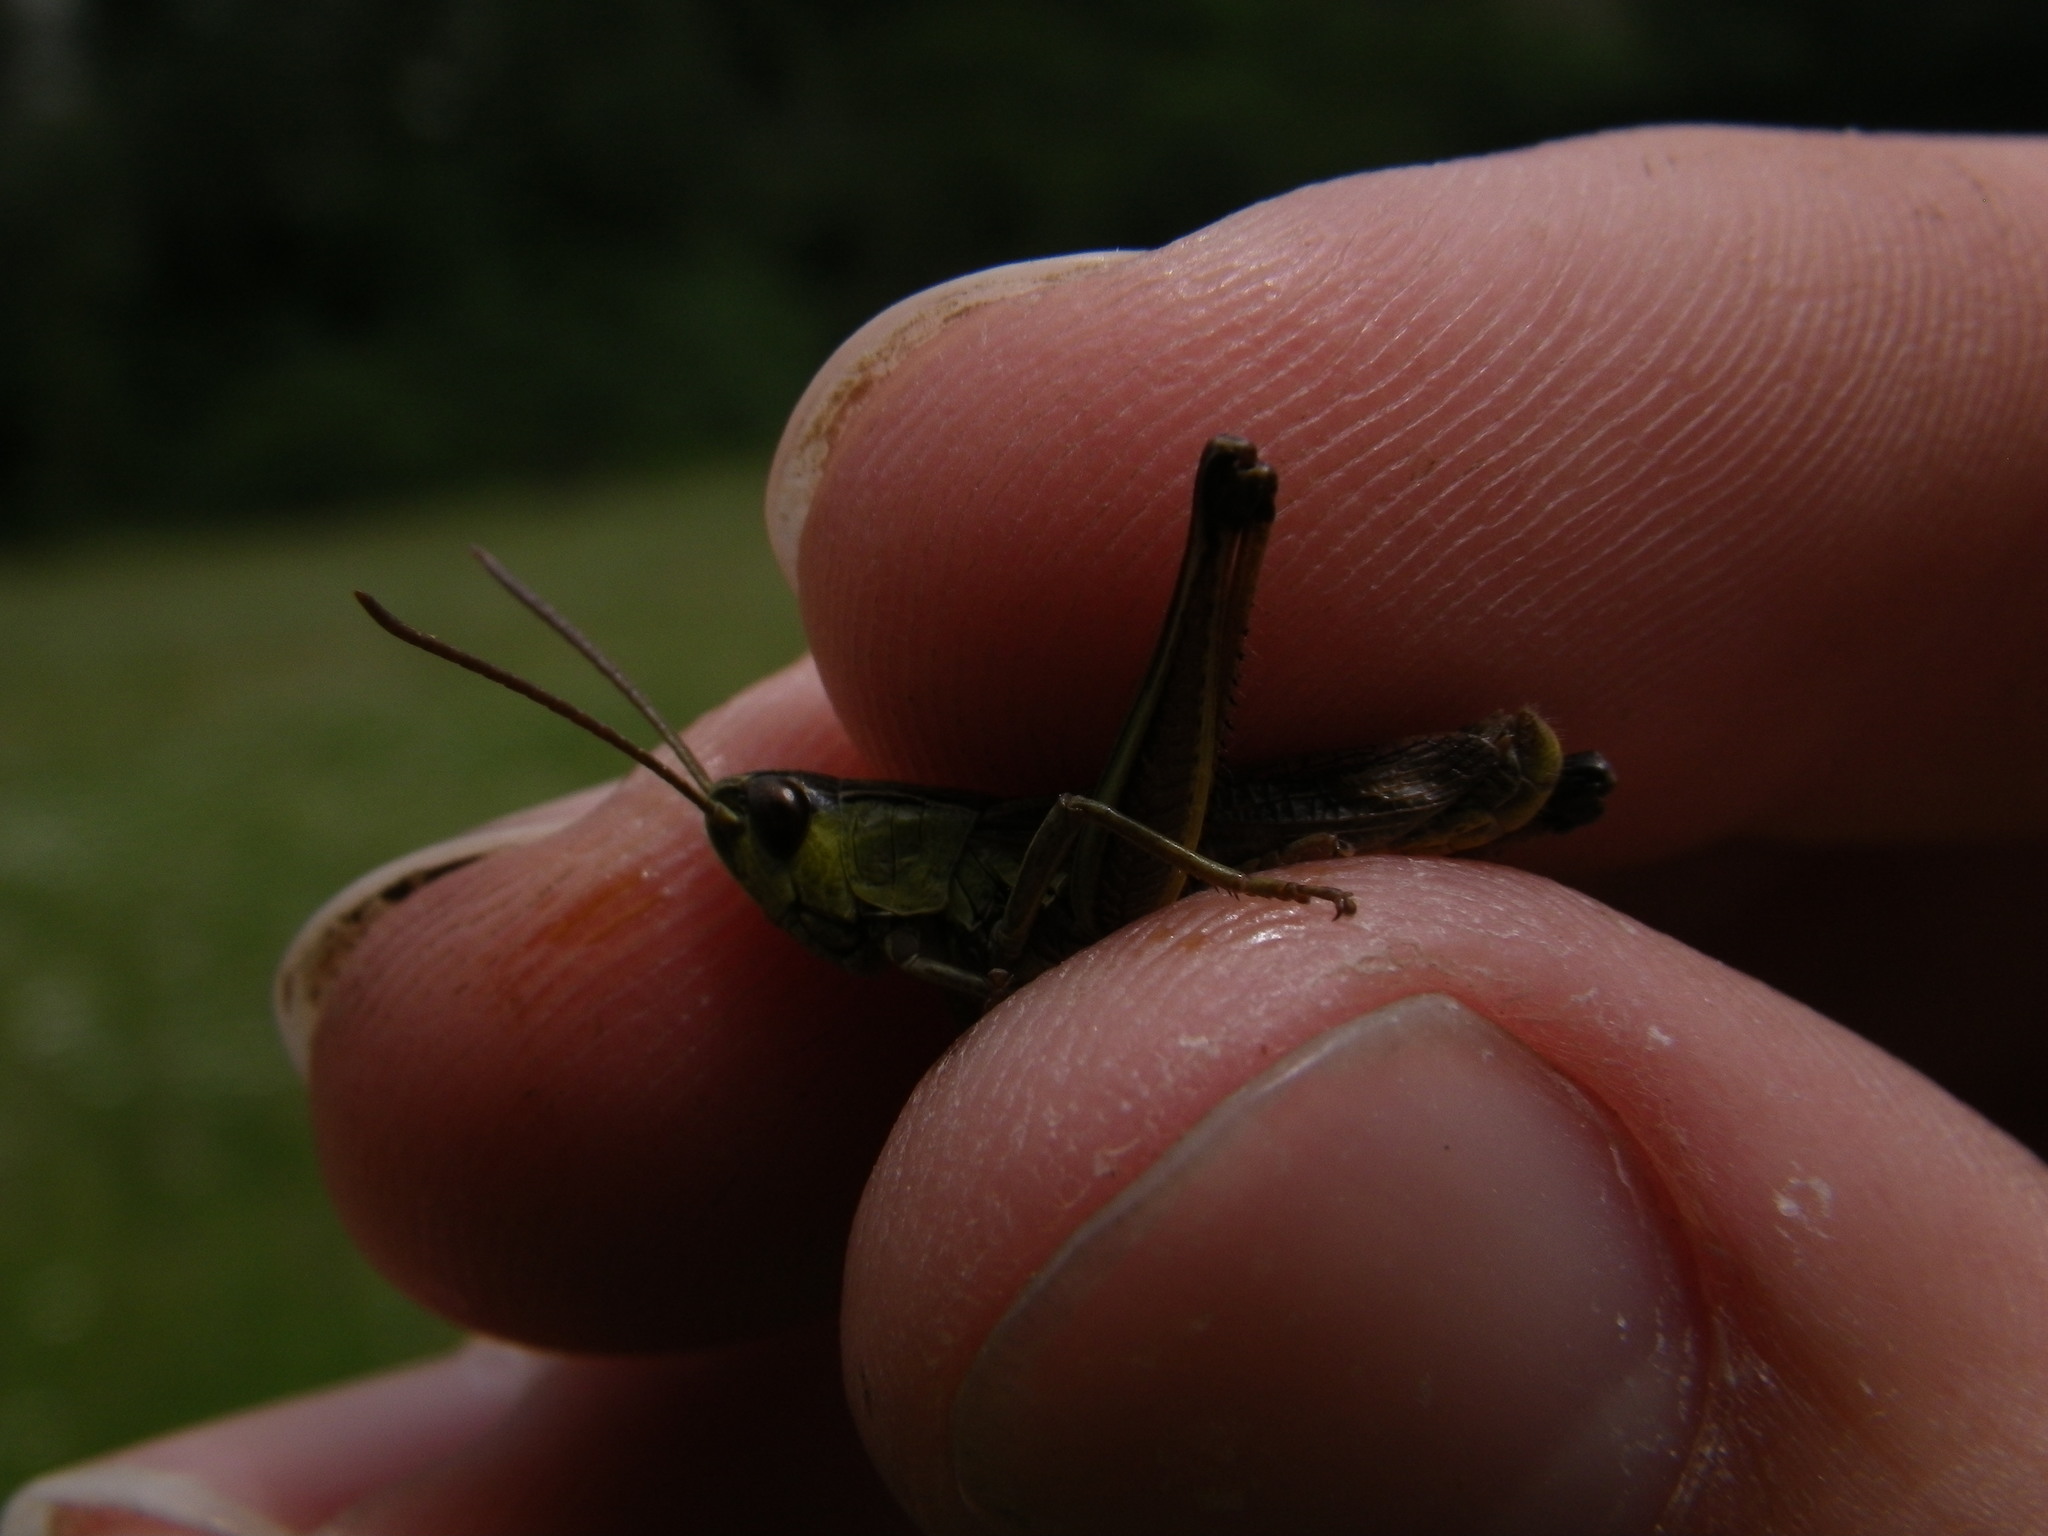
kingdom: Animalia
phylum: Arthropoda
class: Insecta
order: Orthoptera
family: Acrididae
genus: Pseudochorthippus
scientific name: Pseudochorthippus parallelus
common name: Meadow grasshopper
